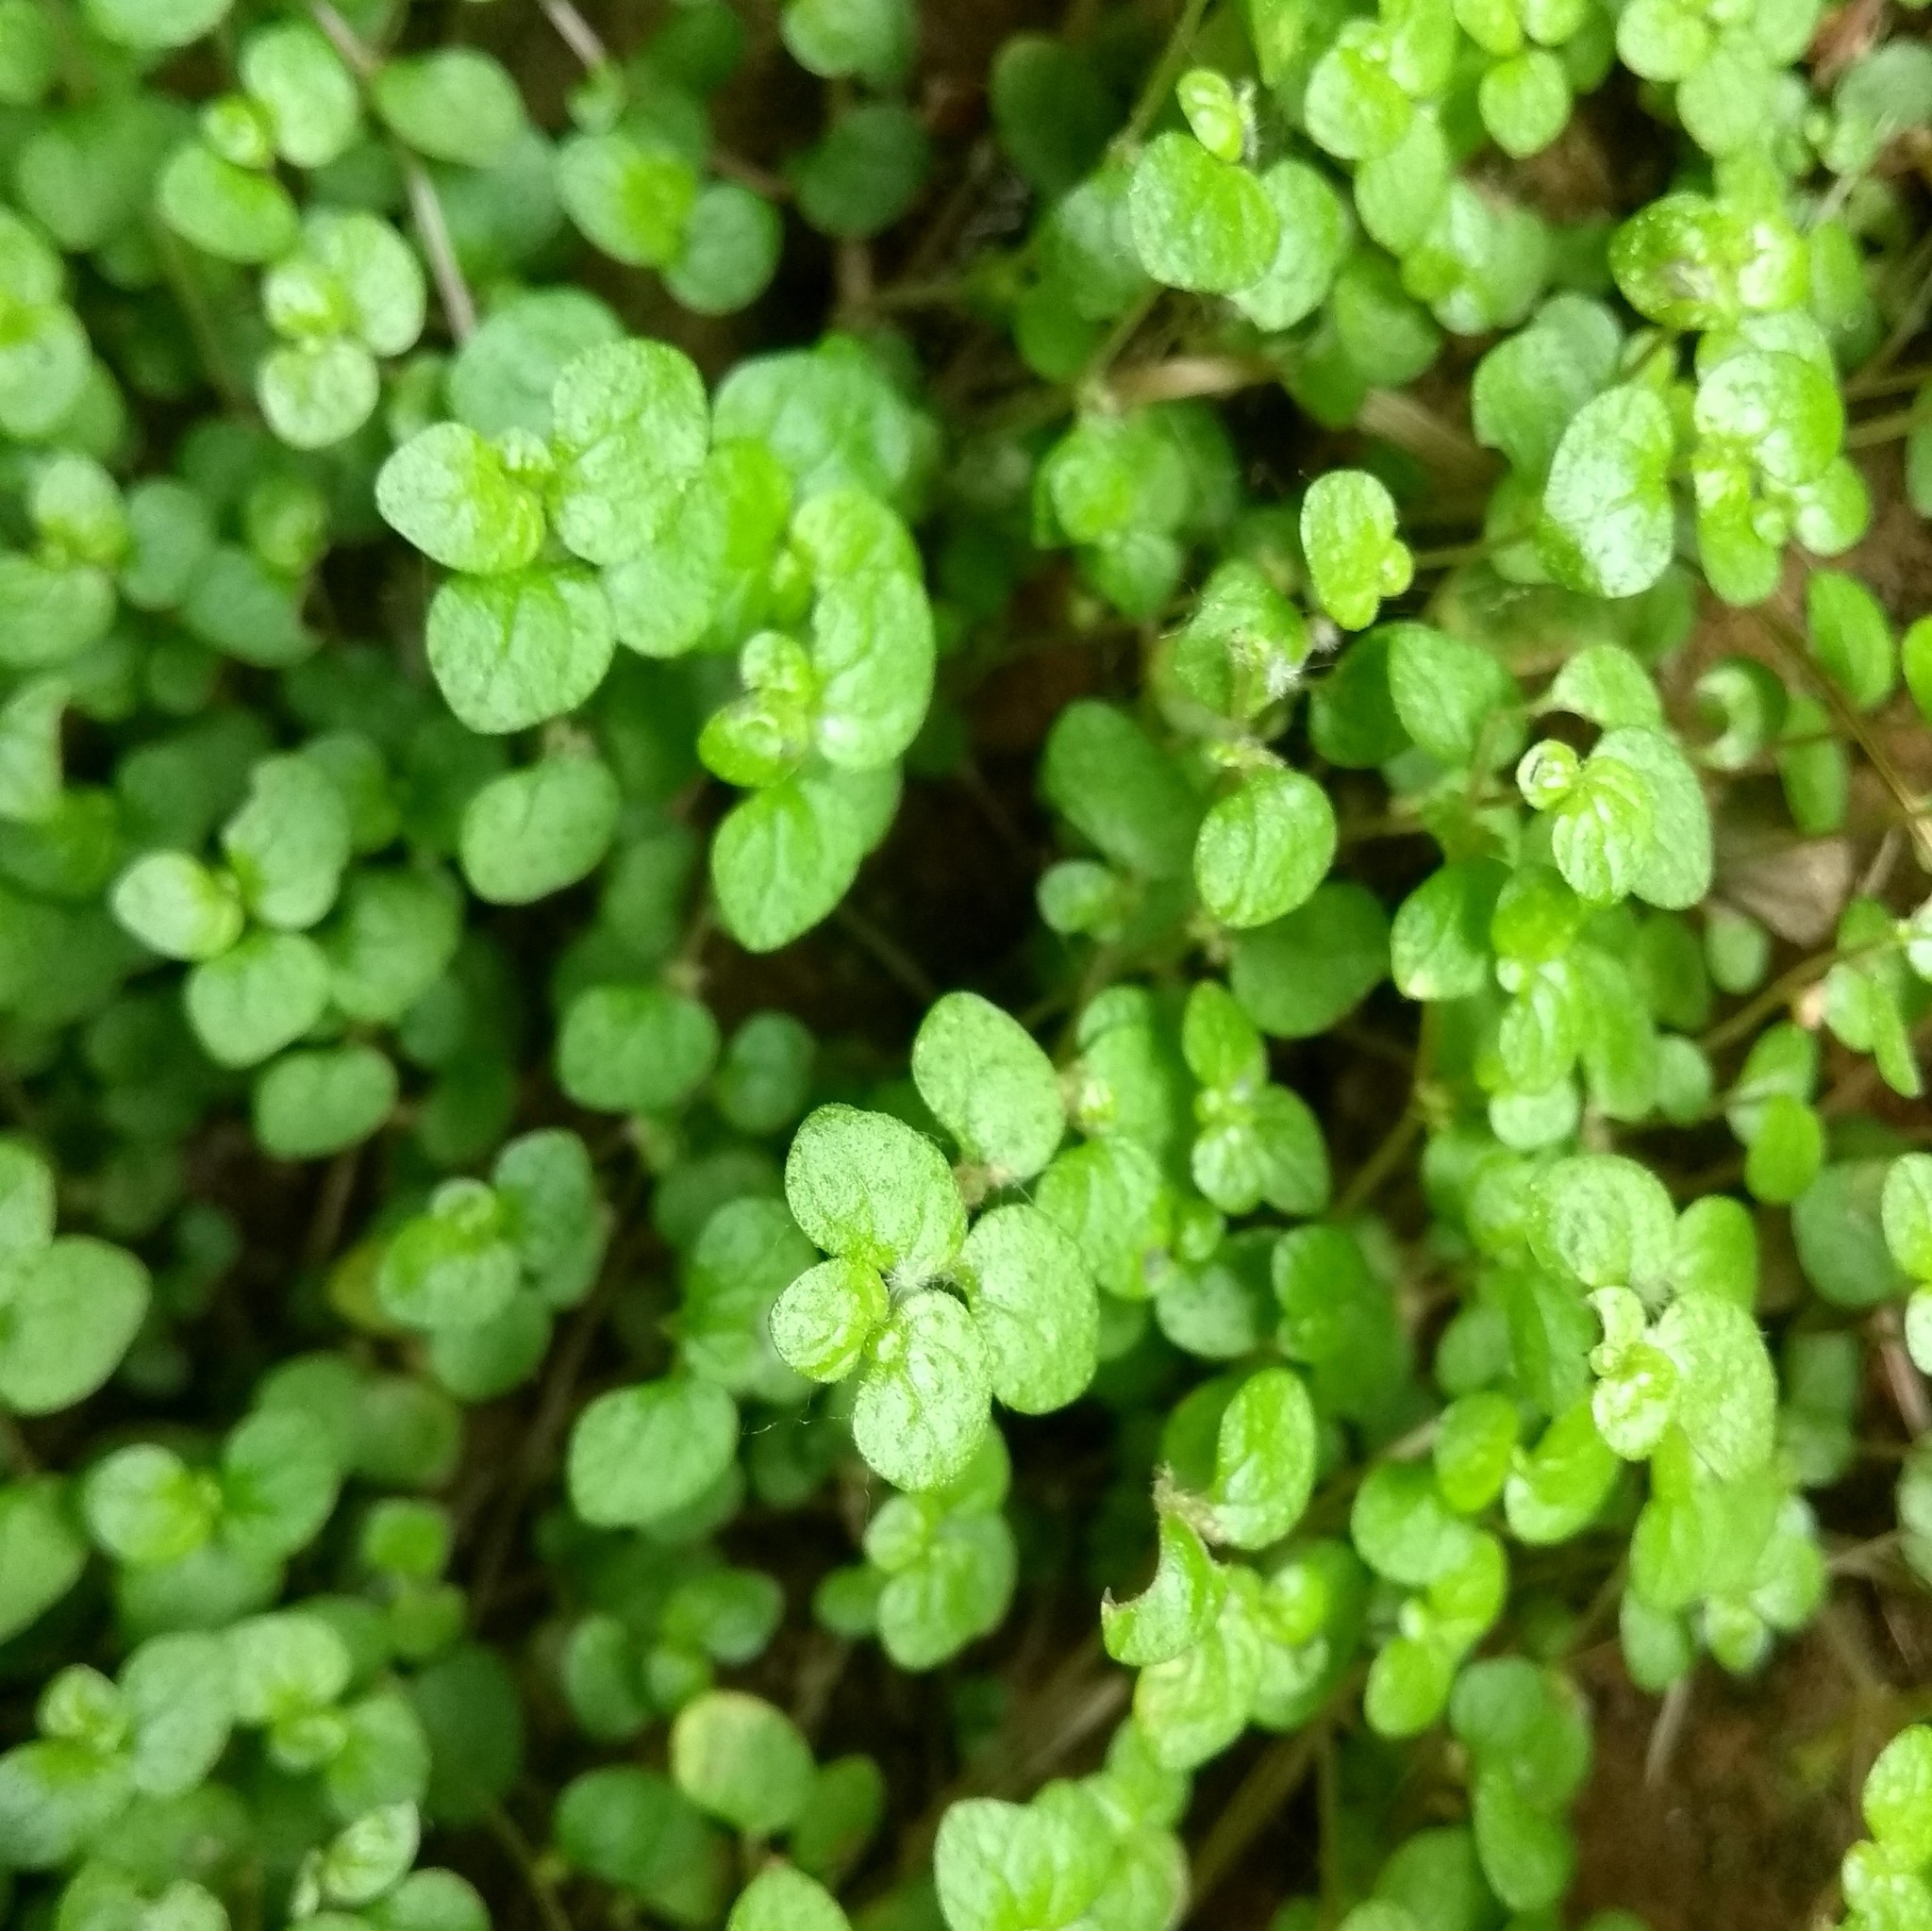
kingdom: Plantae
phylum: Tracheophyta
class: Magnoliopsida
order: Rosales
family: Urticaceae
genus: Soleirolia
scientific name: Soleirolia soleirolii
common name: Mind-your-own-business
